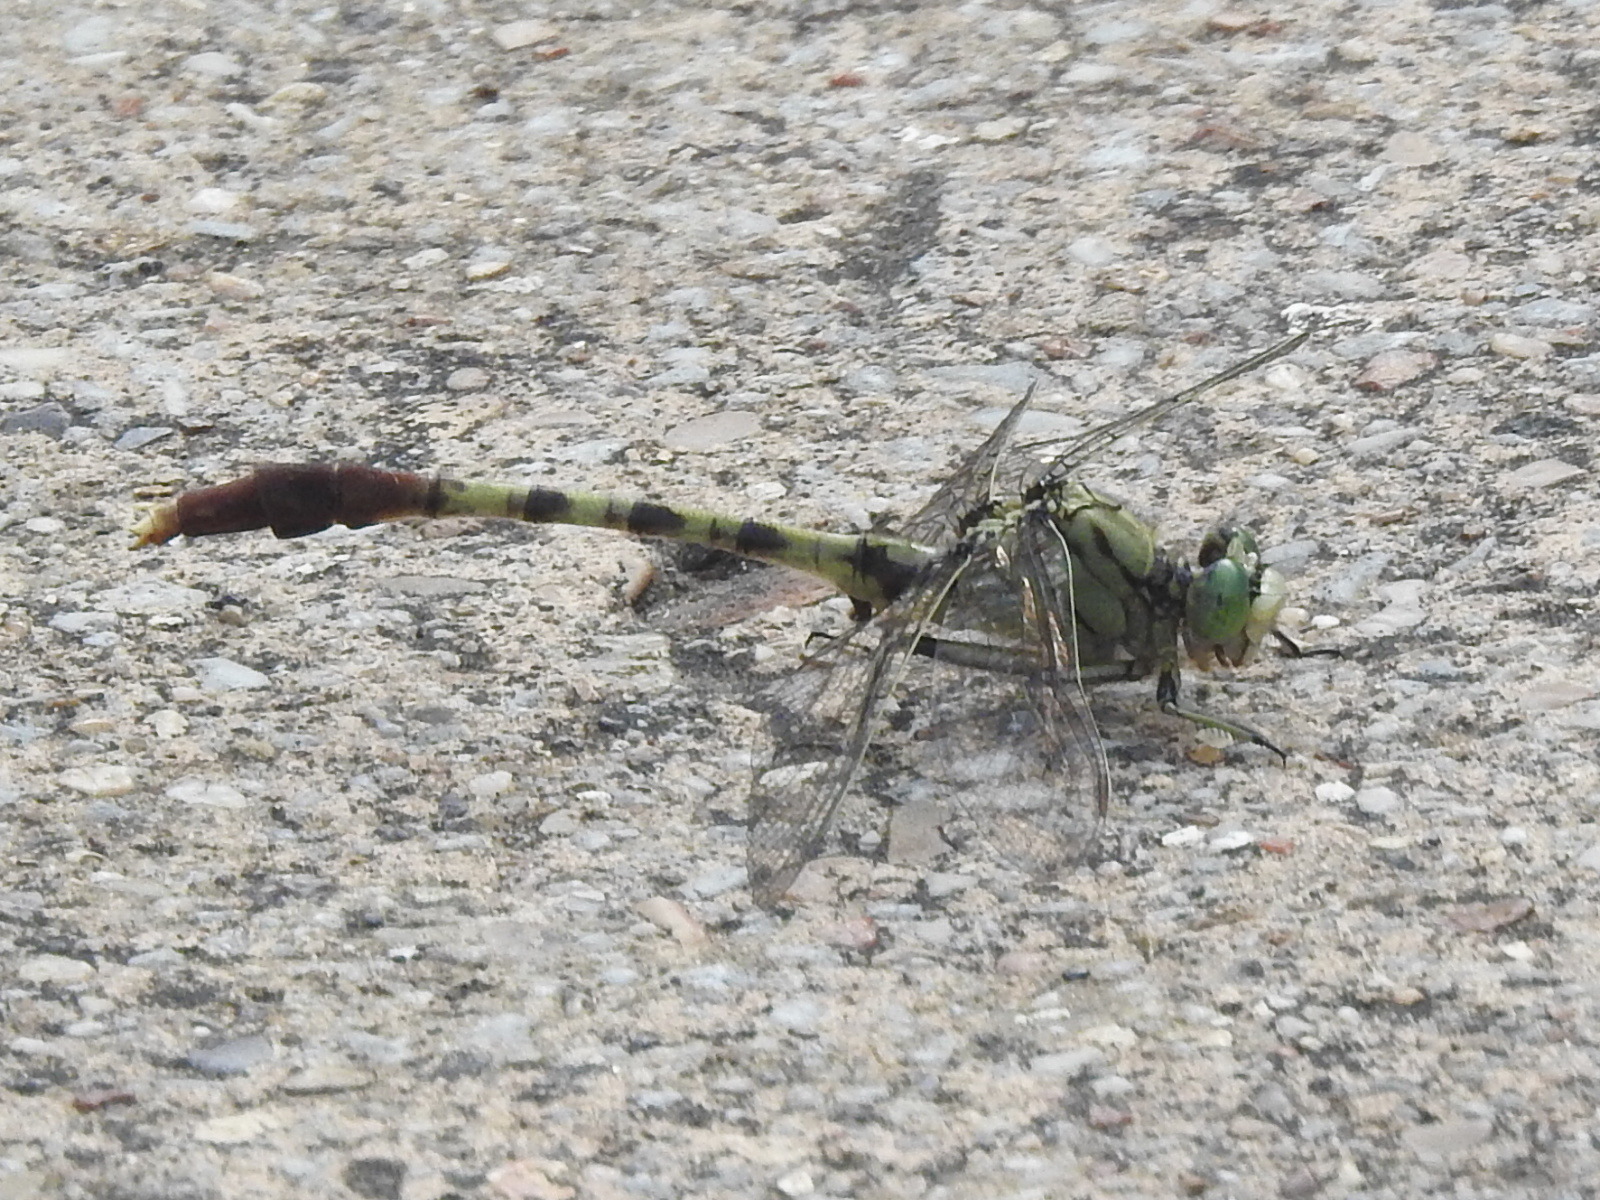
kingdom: Animalia
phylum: Arthropoda
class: Insecta
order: Odonata
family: Gomphidae
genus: Arigomphus
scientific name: Arigomphus submedianus
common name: Jade clubtail
